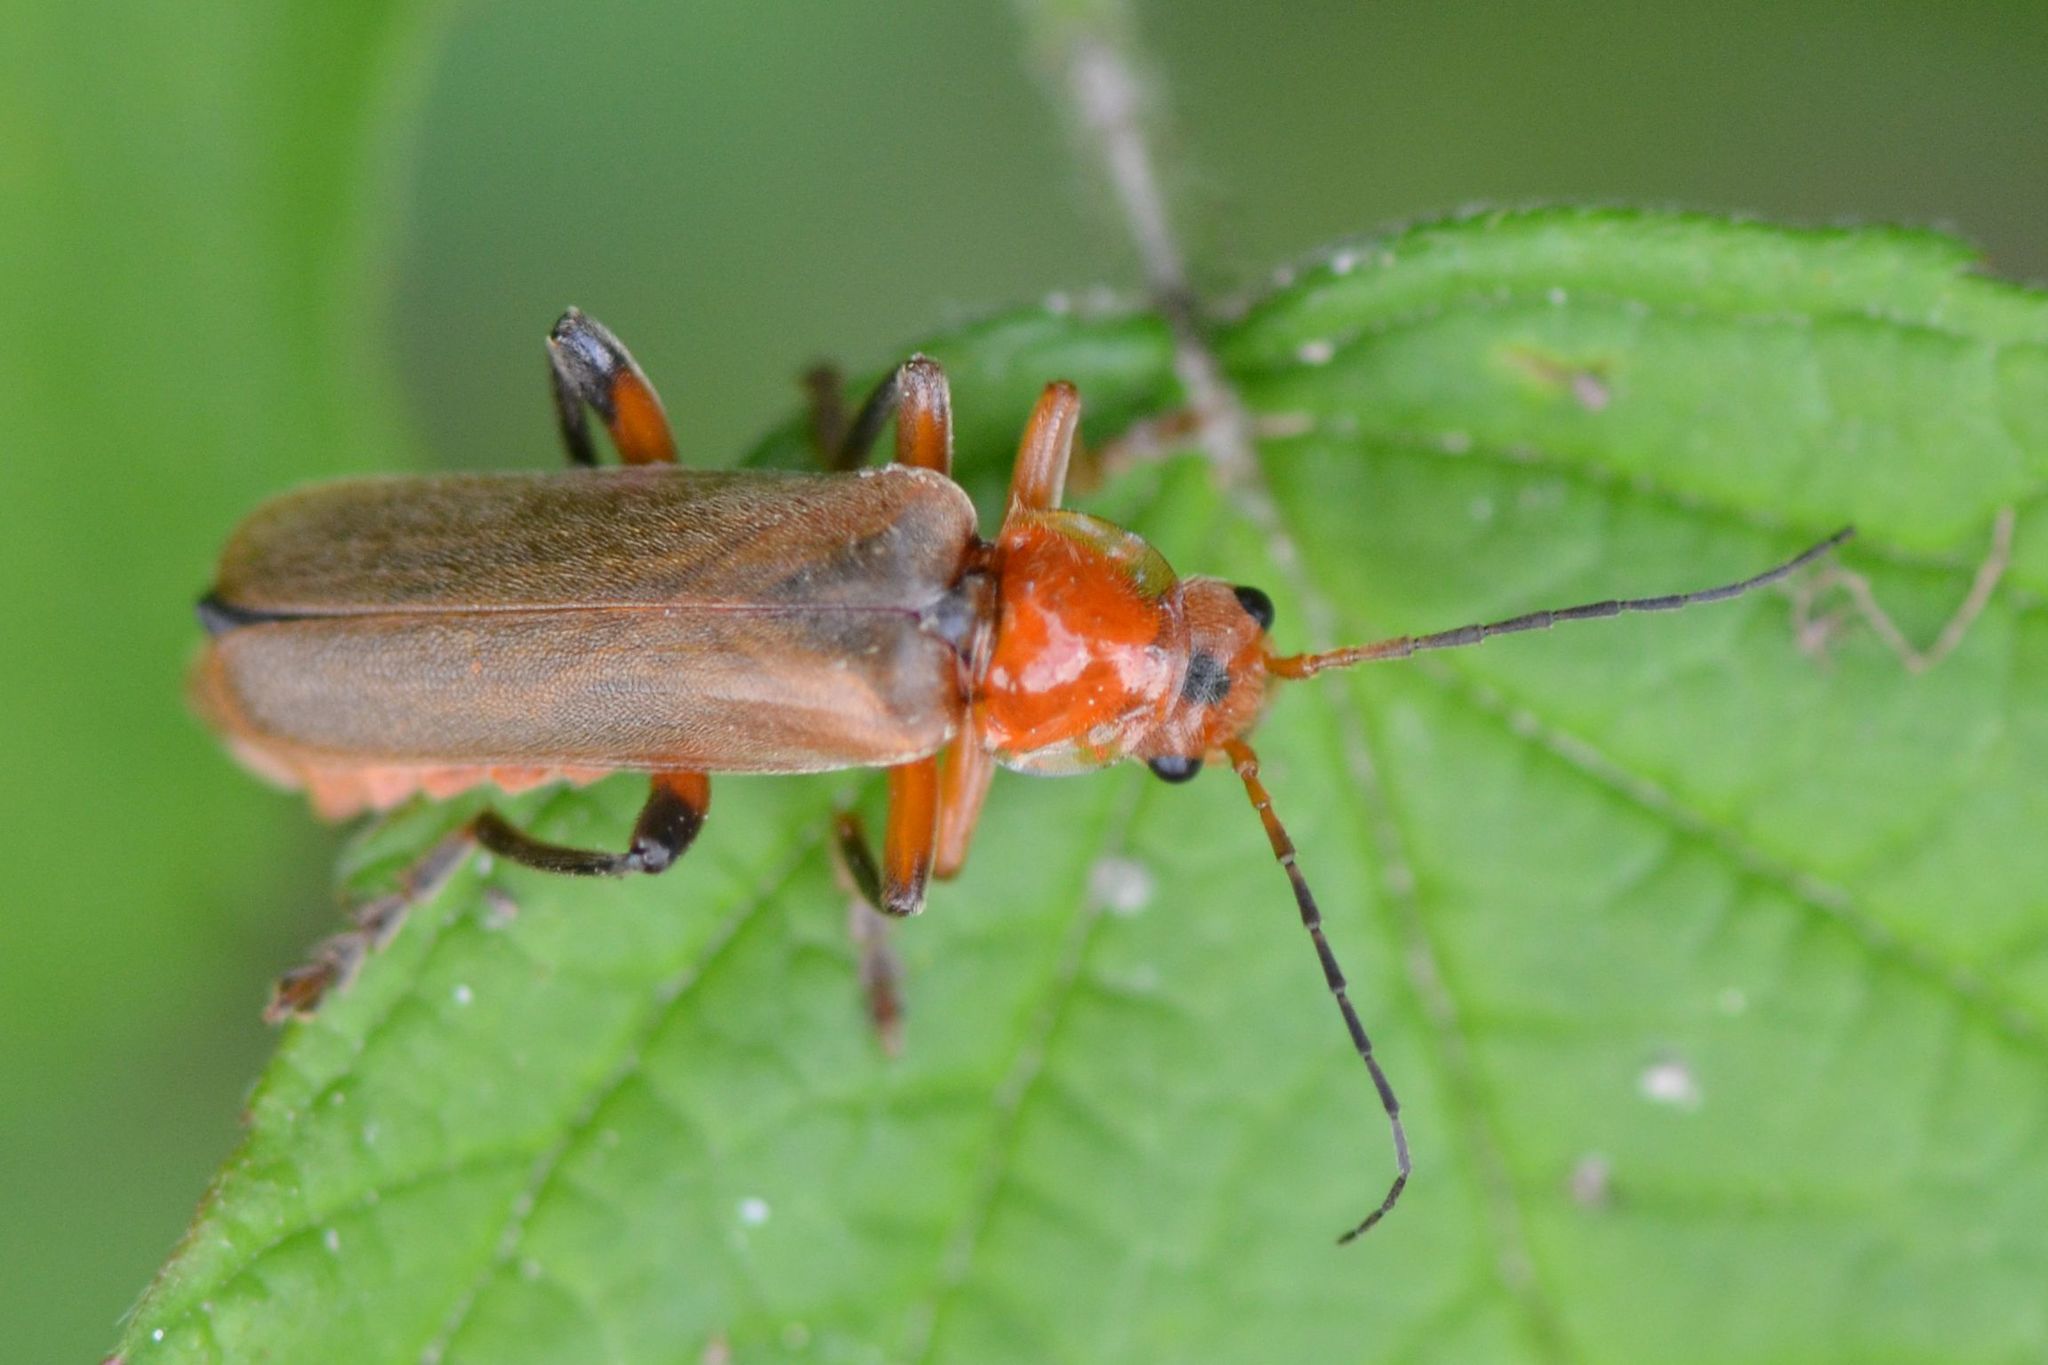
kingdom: Animalia
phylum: Arthropoda
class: Insecta
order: Coleoptera
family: Cantharidae
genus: Cantharis
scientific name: Cantharis livida
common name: Livid soldier beetle
